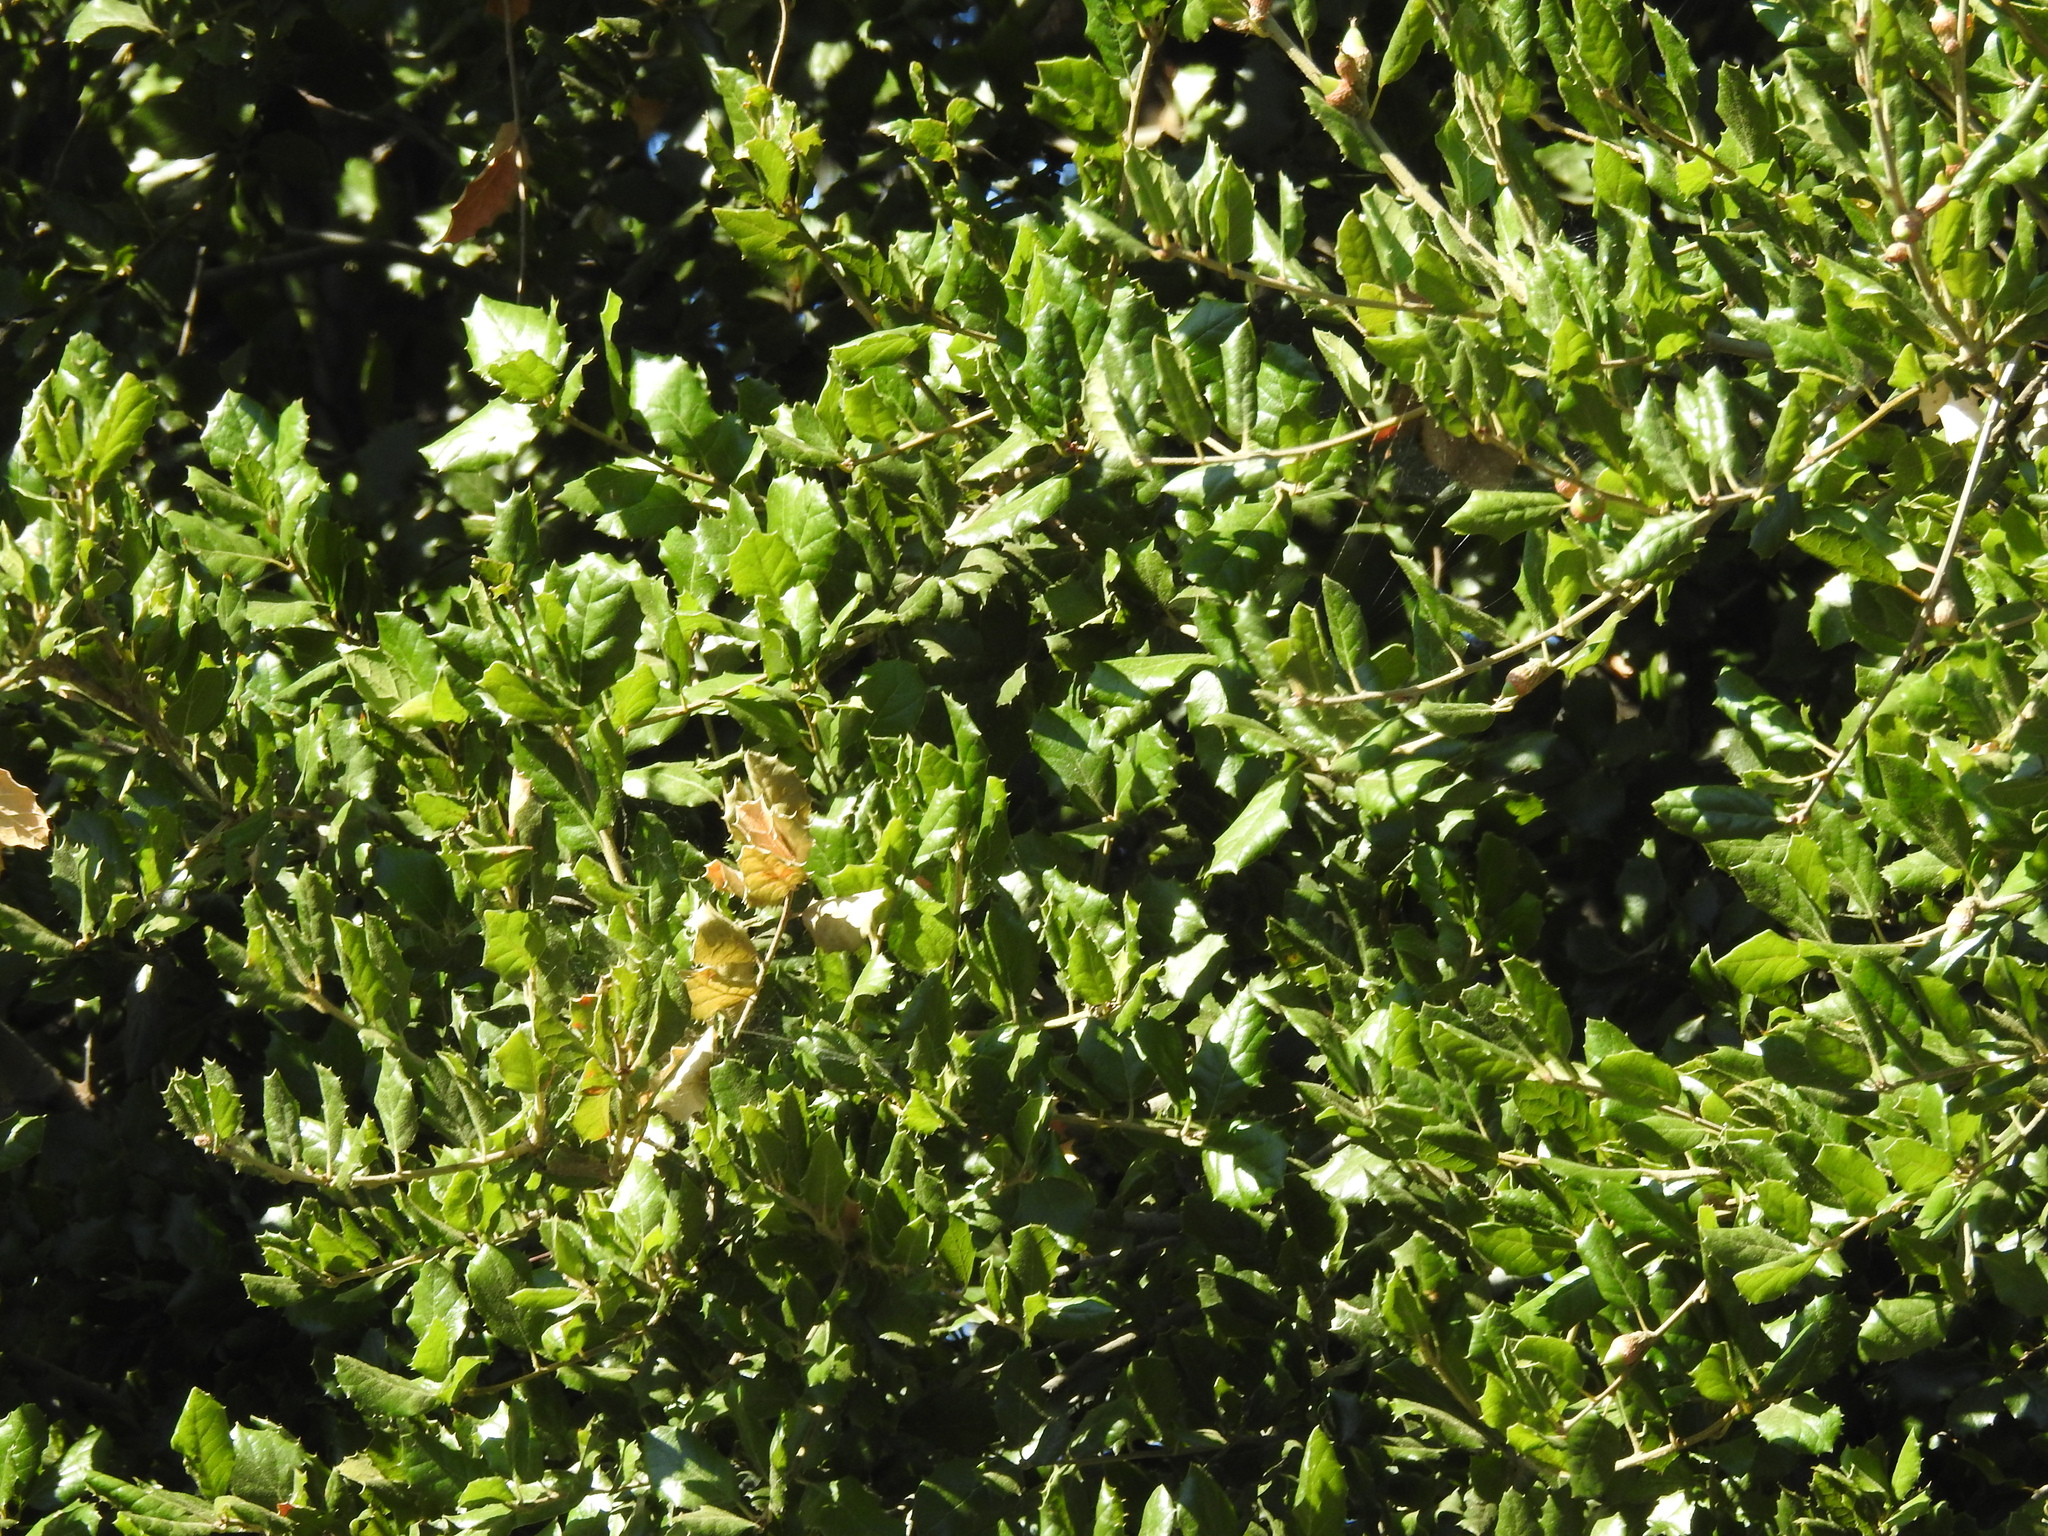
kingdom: Plantae
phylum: Tracheophyta
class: Magnoliopsida
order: Fagales
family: Fagaceae
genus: Quercus
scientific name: Quercus agrifolia
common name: California live oak
